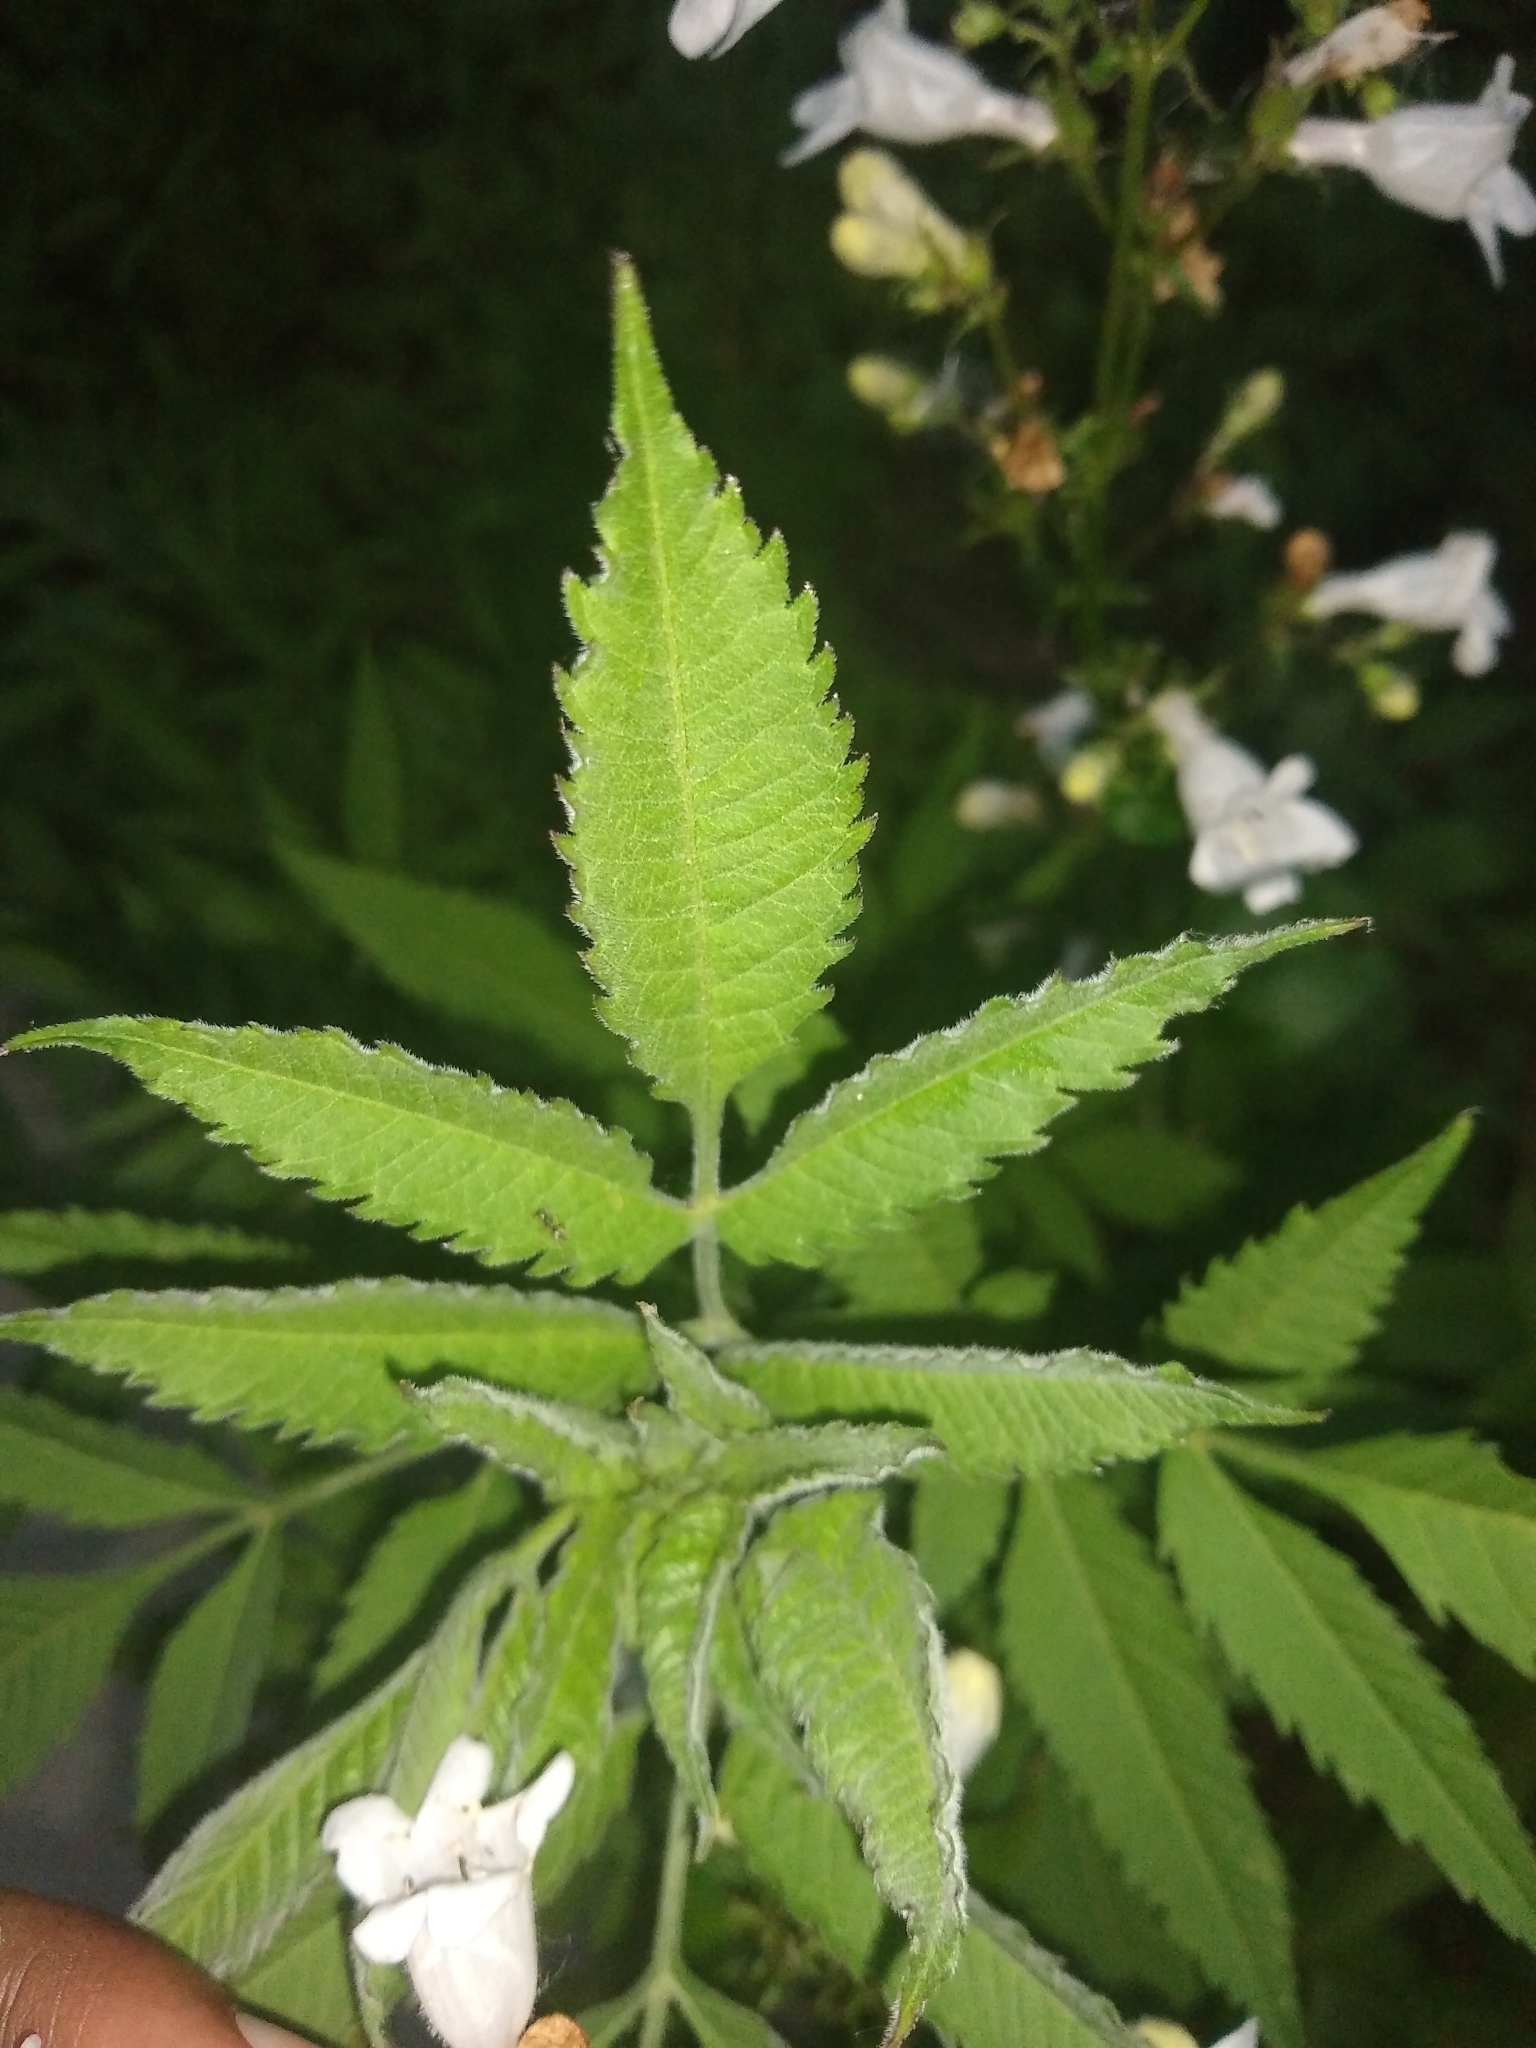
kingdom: Plantae
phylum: Tracheophyta
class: Magnoliopsida
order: Lamiales
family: Plantaginaceae
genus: Penstemon
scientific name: Penstemon digitalis
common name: Foxglove beardtongue
